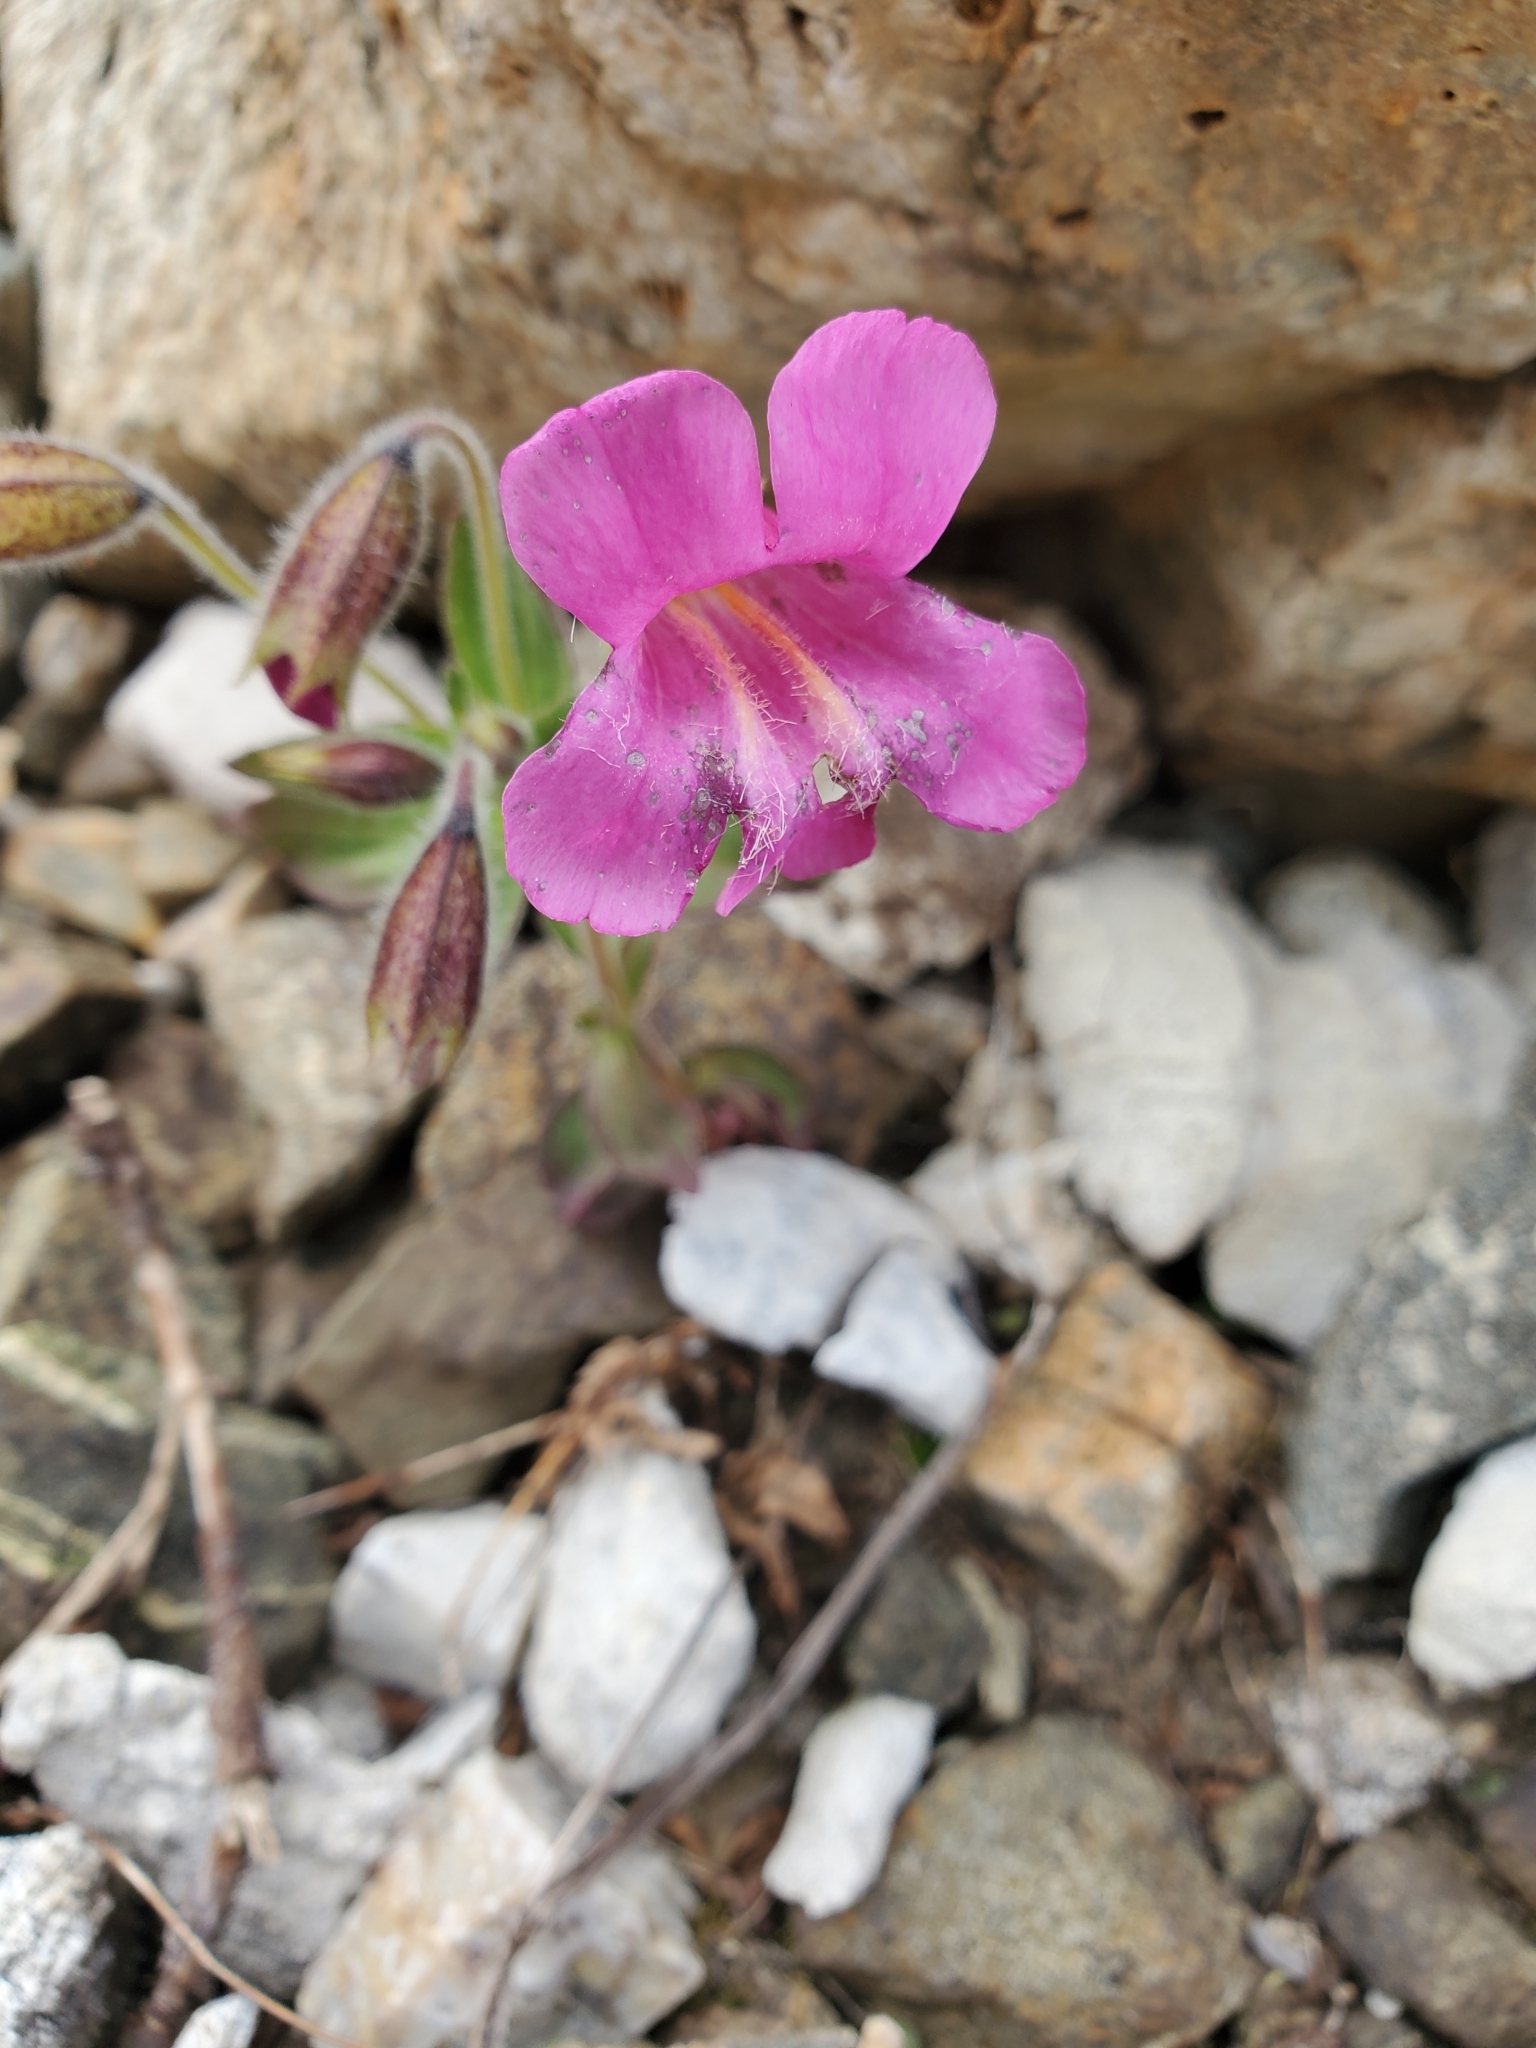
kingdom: Plantae
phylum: Tracheophyta
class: Magnoliopsida
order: Lamiales
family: Phrymaceae
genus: Erythranthe
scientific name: Erythranthe lewisii
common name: Lewis's monkey-flower
